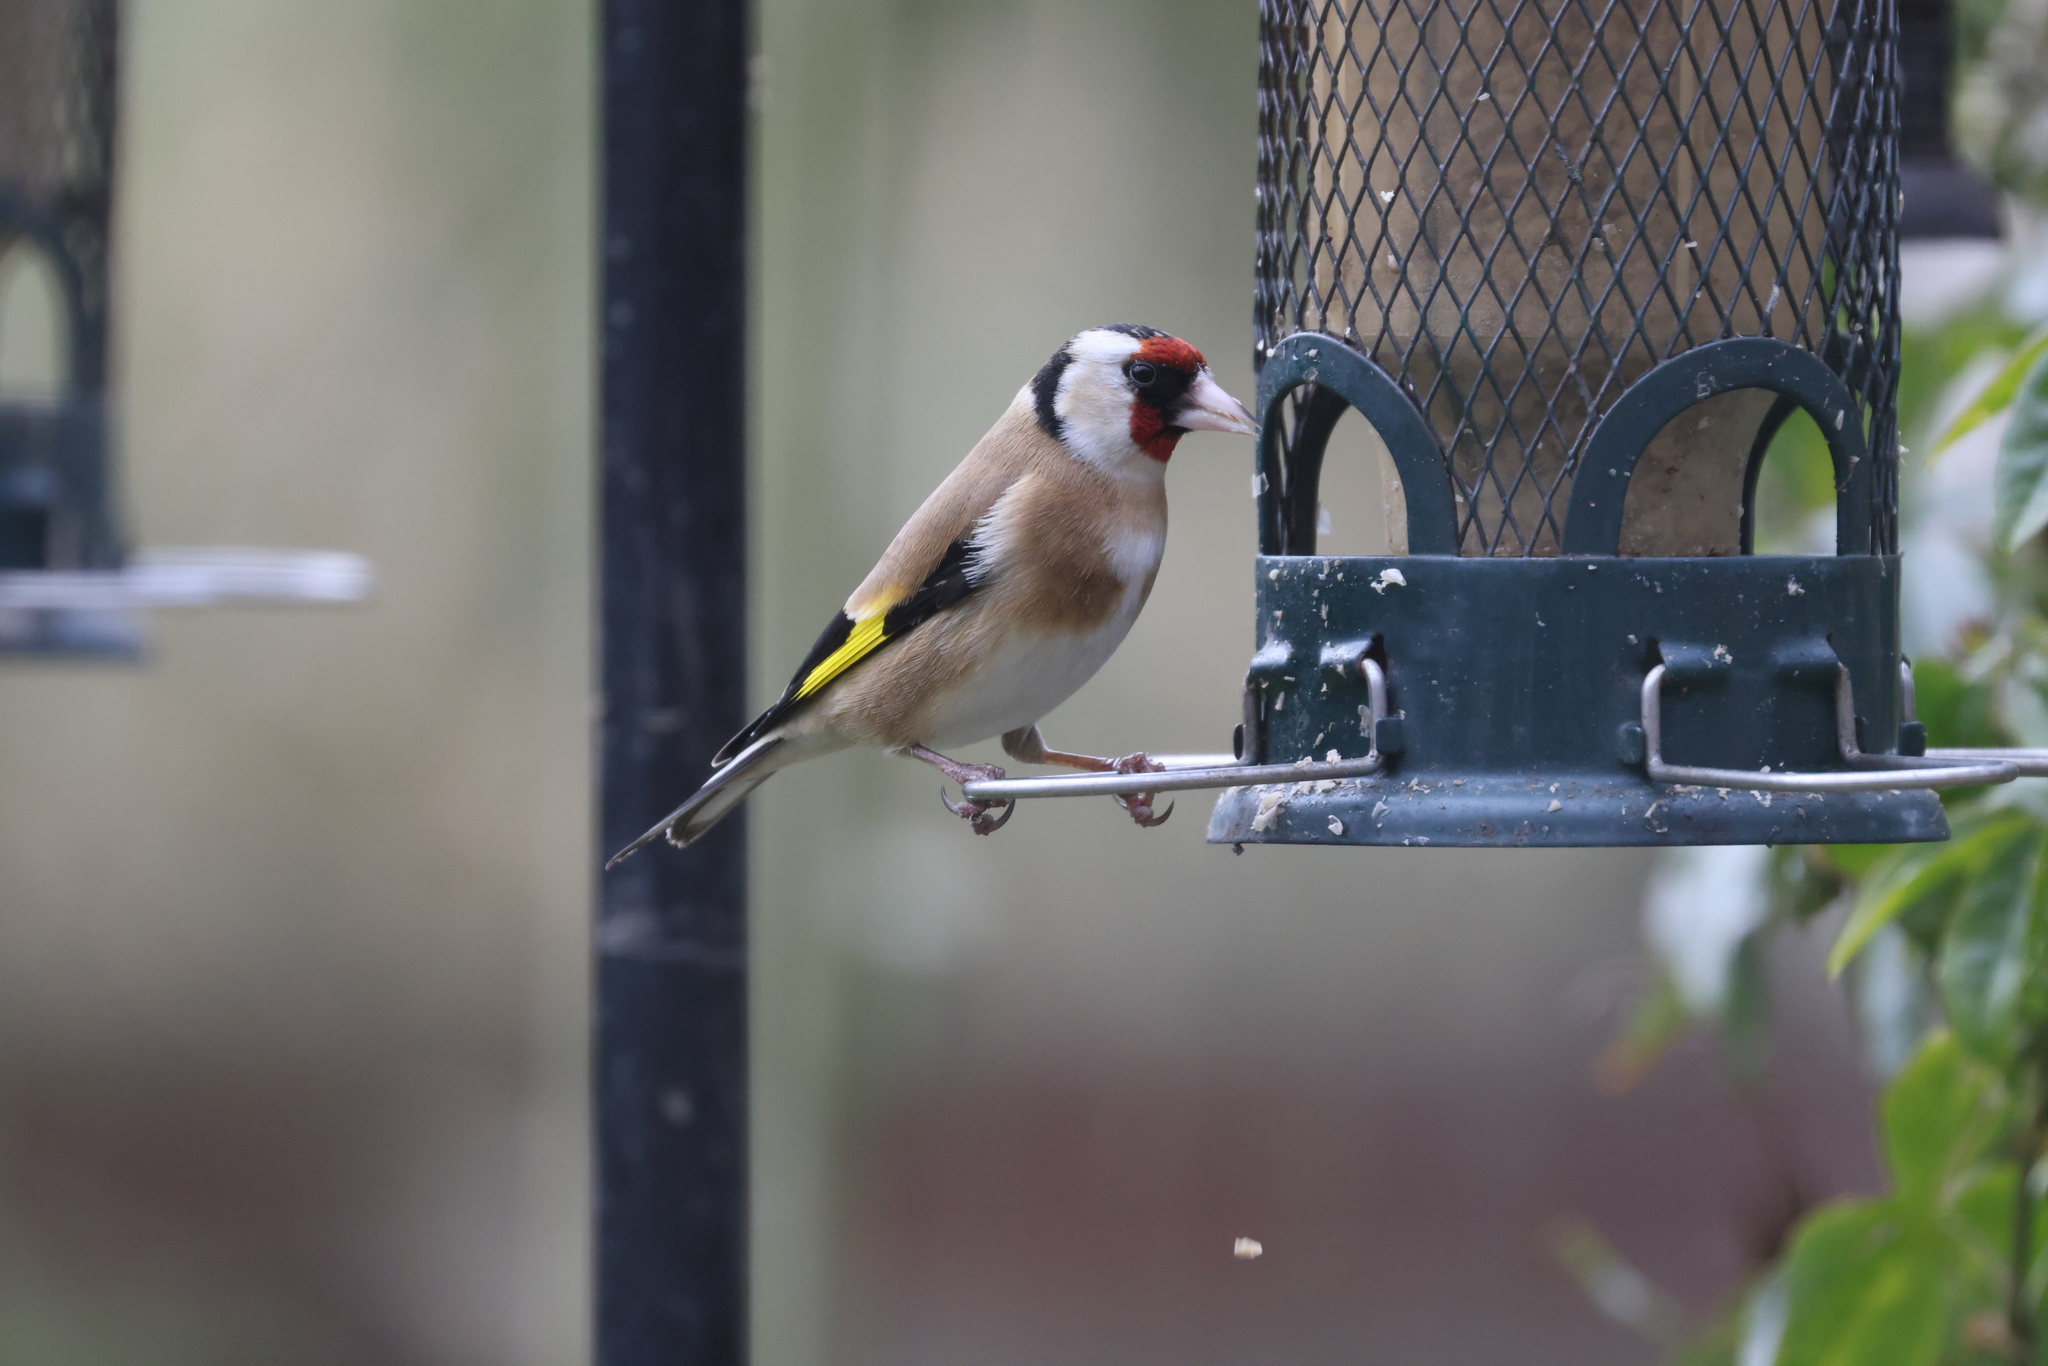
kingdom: Animalia
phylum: Chordata
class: Aves
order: Passeriformes
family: Fringillidae
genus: Carduelis
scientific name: Carduelis carduelis
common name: European goldfinch
